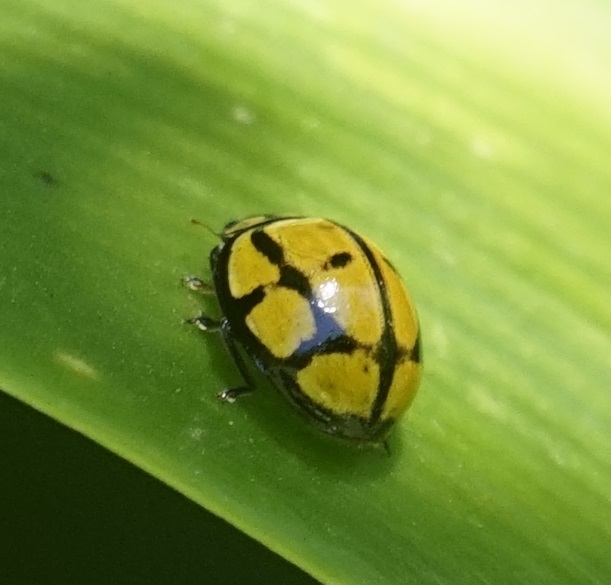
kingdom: Animalia
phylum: Arthropoda
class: Insecta
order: Coleoptera
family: Coccinellidae
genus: Harmonia
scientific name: Harmonia
